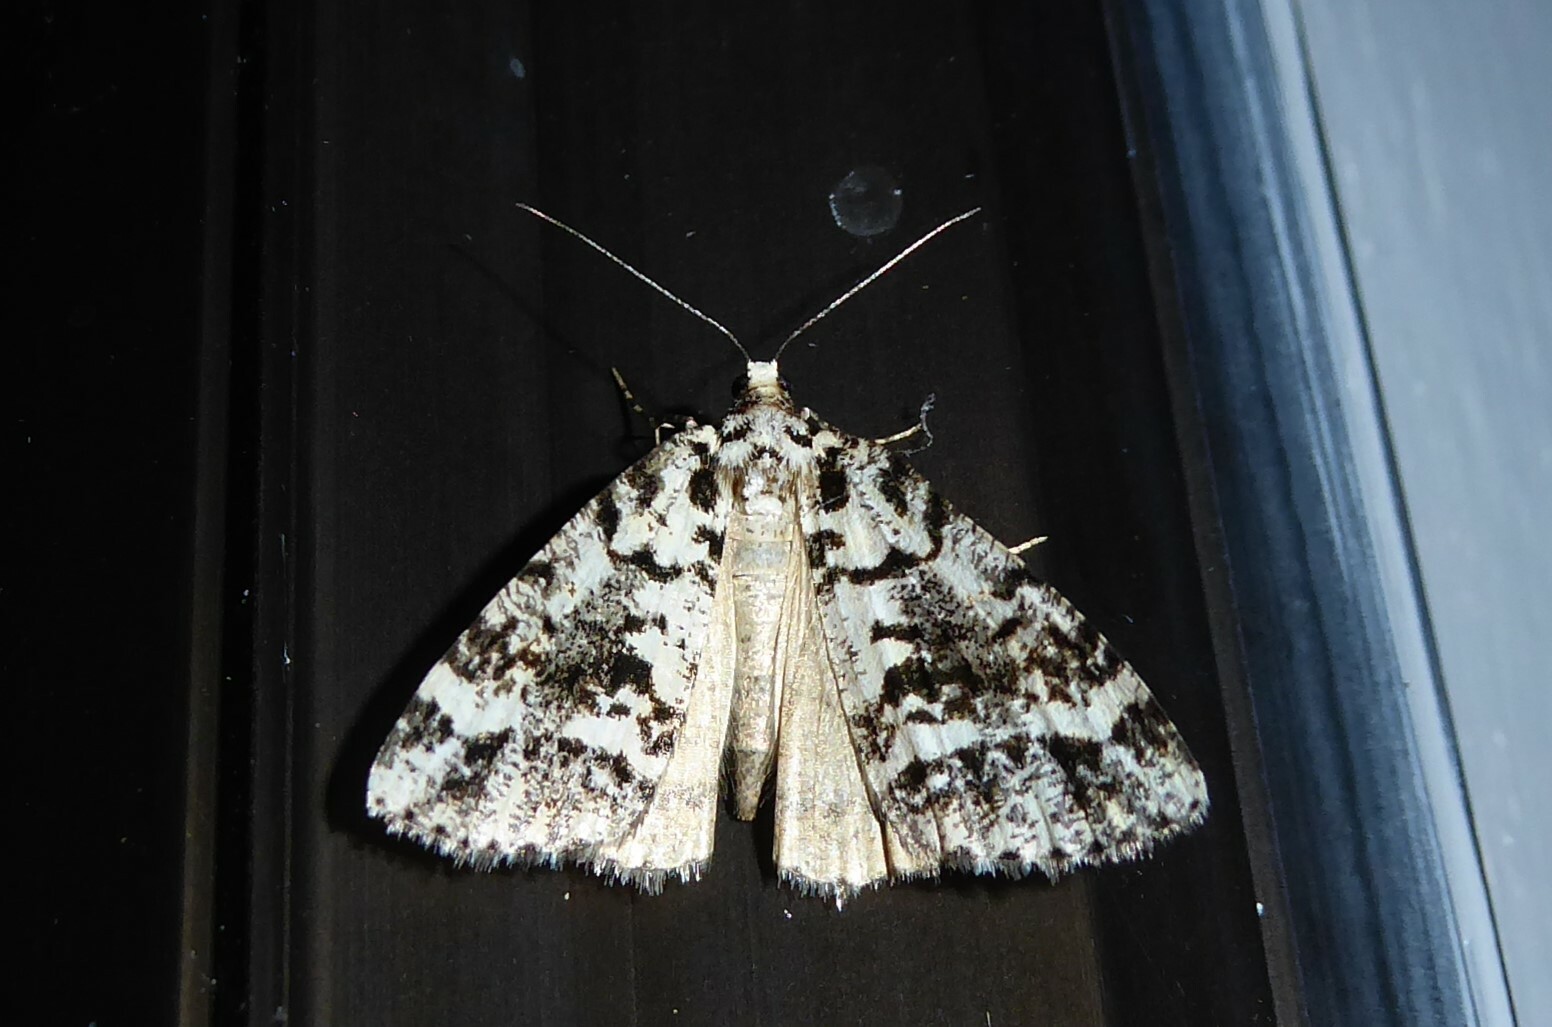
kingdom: Animalia
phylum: Arthropoda
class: Insecta
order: Lepidoptera
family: Geometridae
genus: Pseudocoremia
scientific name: Pseudocoremia leucelaea
